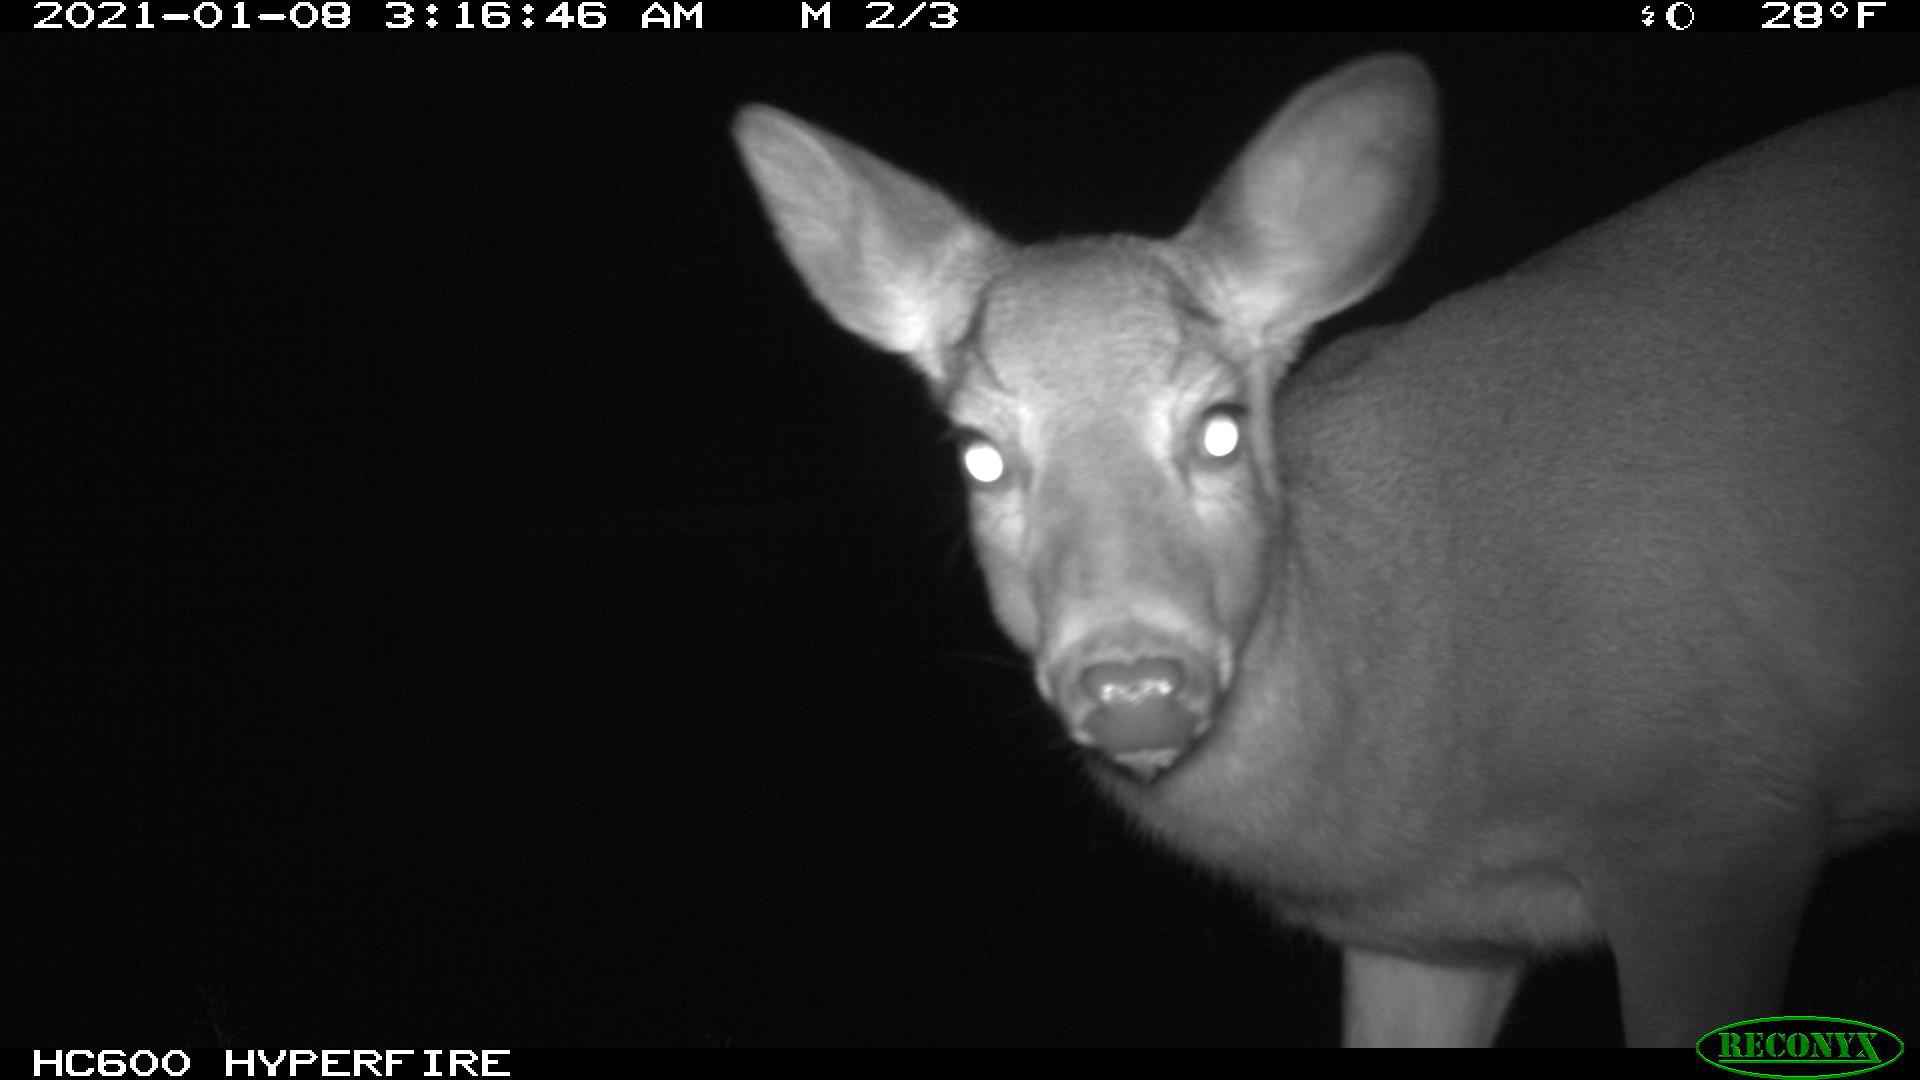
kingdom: Animalia
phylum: Chordata
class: Mammalia
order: Artiodactyla
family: Cervidae
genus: Odocoileus
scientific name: Odocoileus virginianus
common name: White-tailed deer
